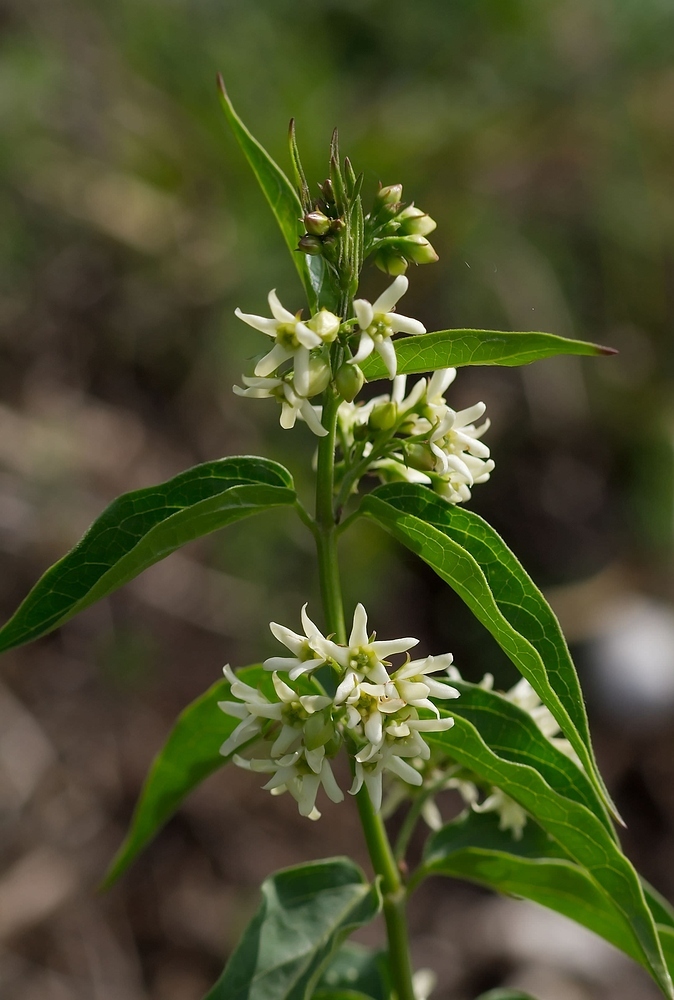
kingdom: Plantae
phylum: Tracheophyta
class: Magnoliopsida
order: Gentianales
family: Apocynaceae
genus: Vincetoxicum
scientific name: Vincetoxicum hirundinaria
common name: White swallowwort
